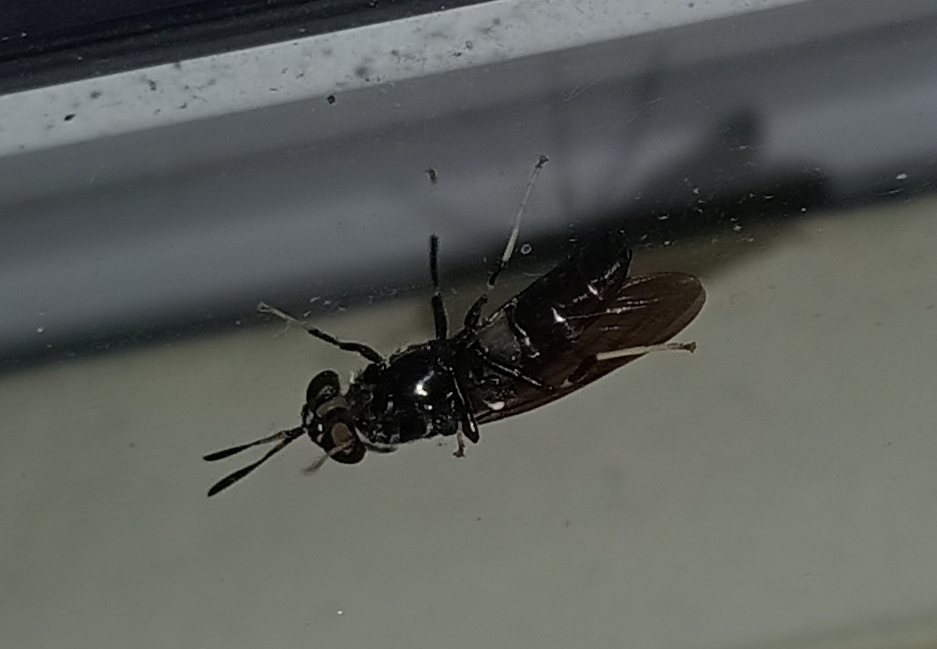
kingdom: Animalia
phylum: Arthropoda
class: Insecta
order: Diptera
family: Stratiomyidae
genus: Hermetia
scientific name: Hermetia illucens
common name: Black soldier fly
